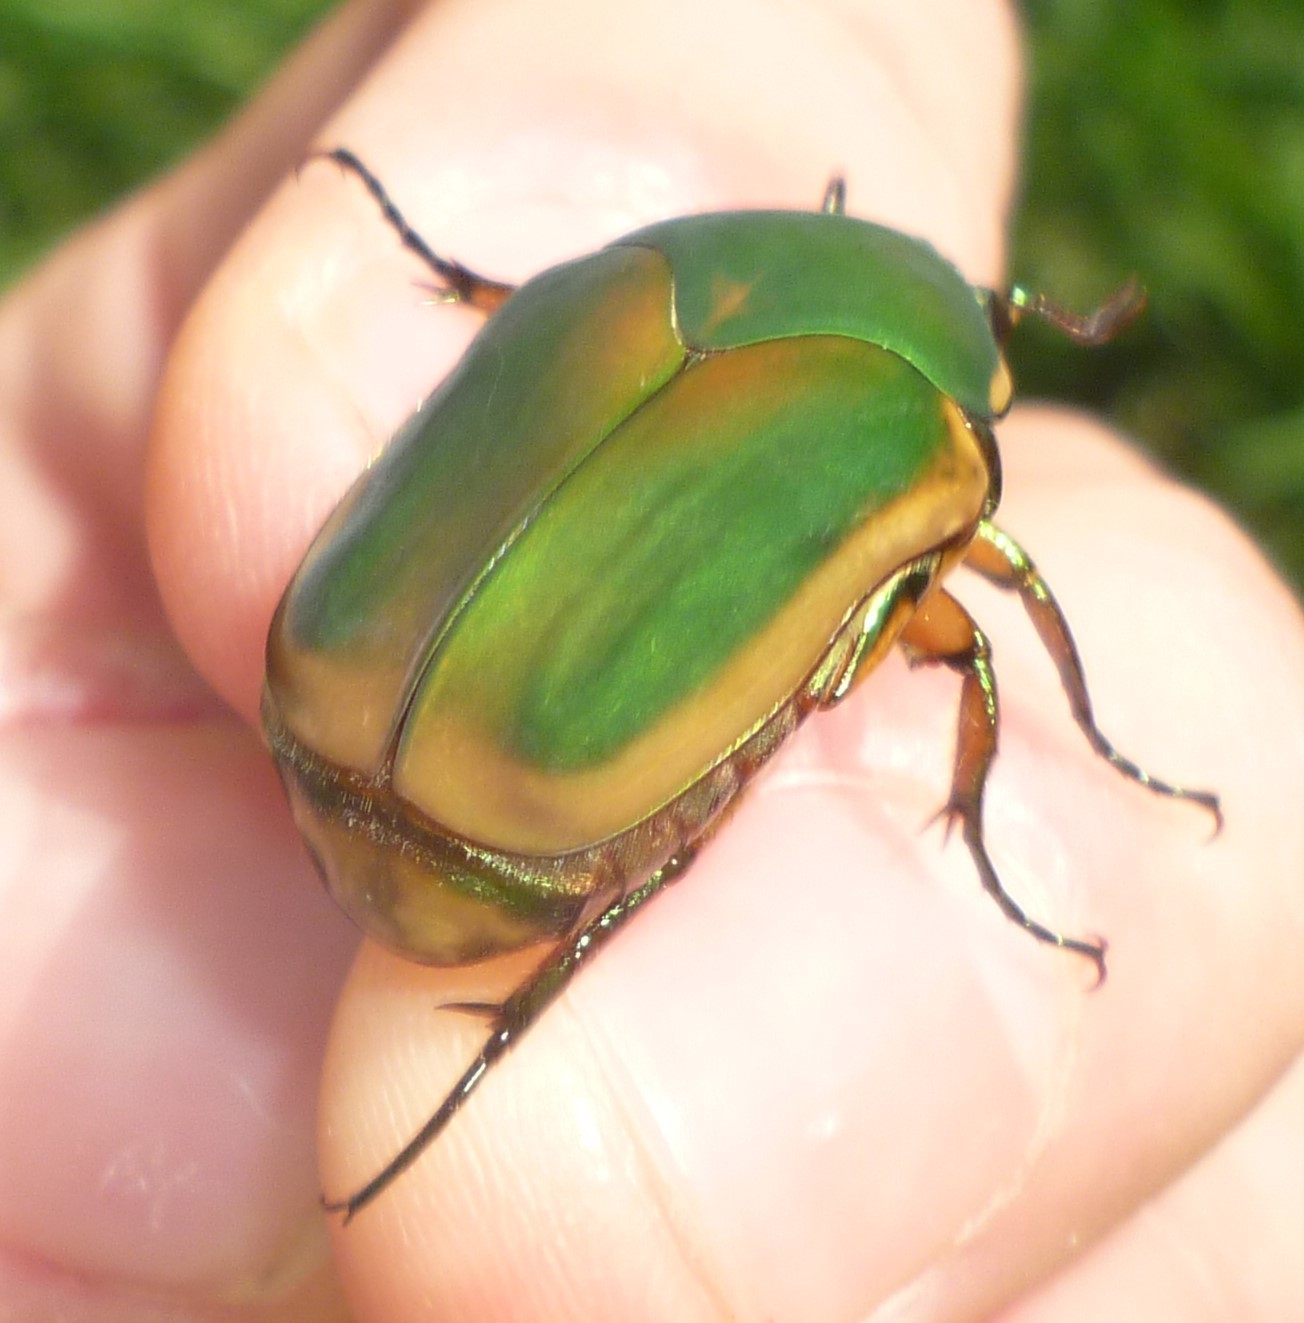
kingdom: Animalia
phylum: Arthropoda
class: Insecta
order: Coleoptera
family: Scarabaeidae
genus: Cotinis
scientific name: Cotinis nitida
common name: Common green june beetle
